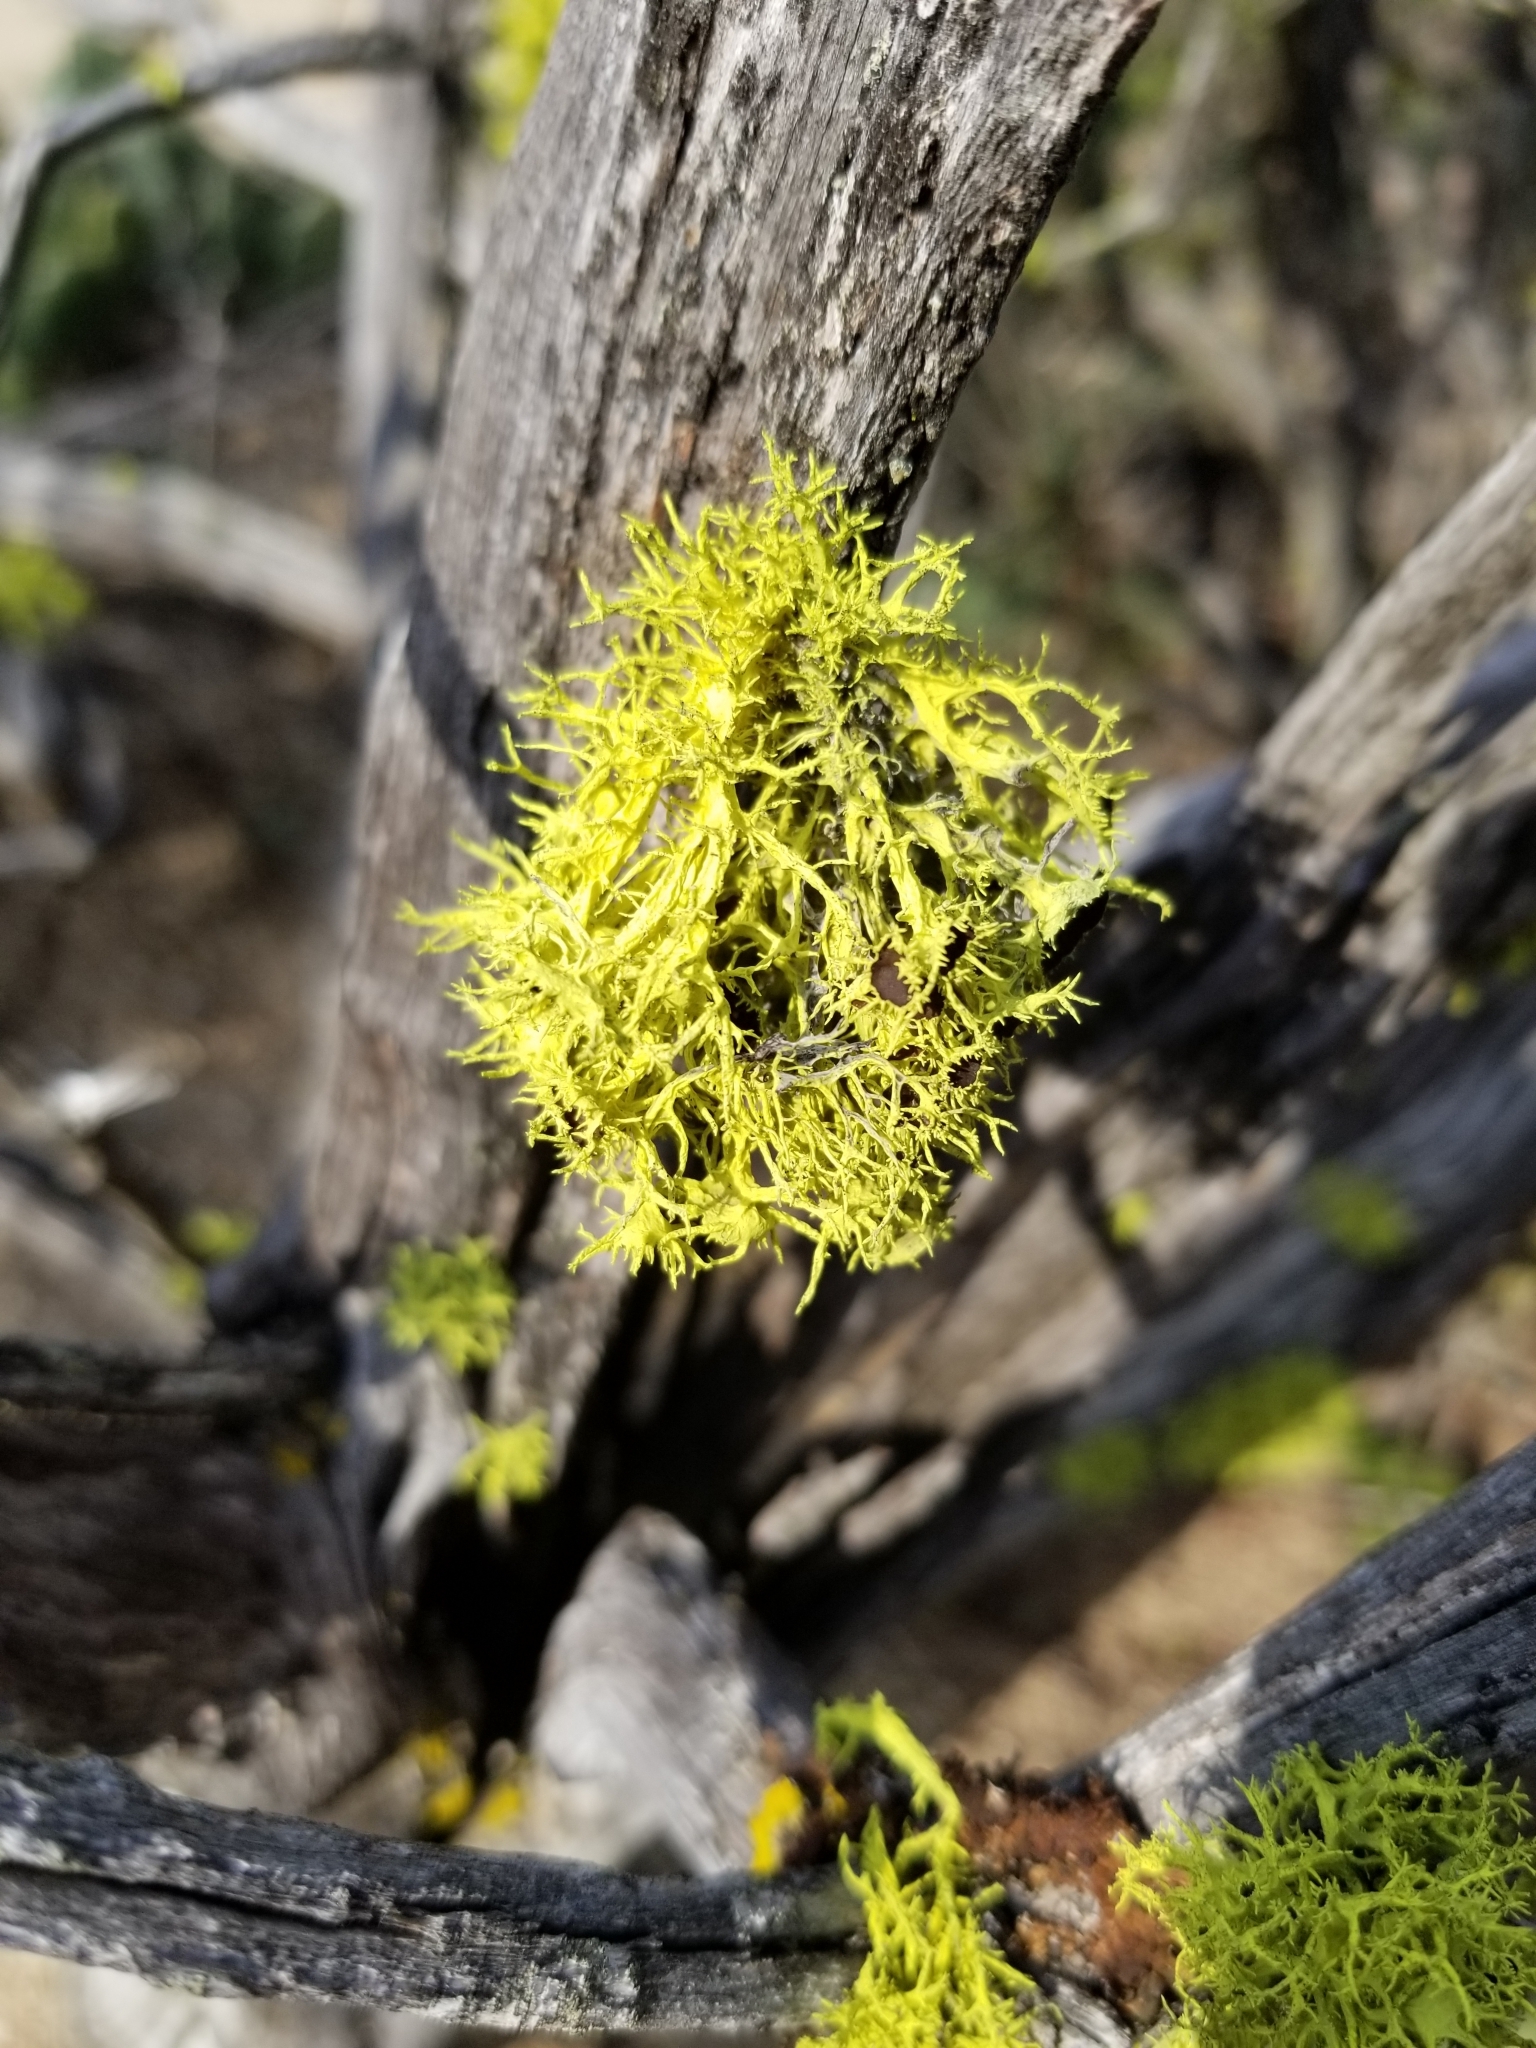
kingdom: Fungi
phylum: Ascomycota
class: Lecanoromycetes
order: Lecanorales
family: Parmeliaceae
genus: Letharia
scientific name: Letharia columbiana
